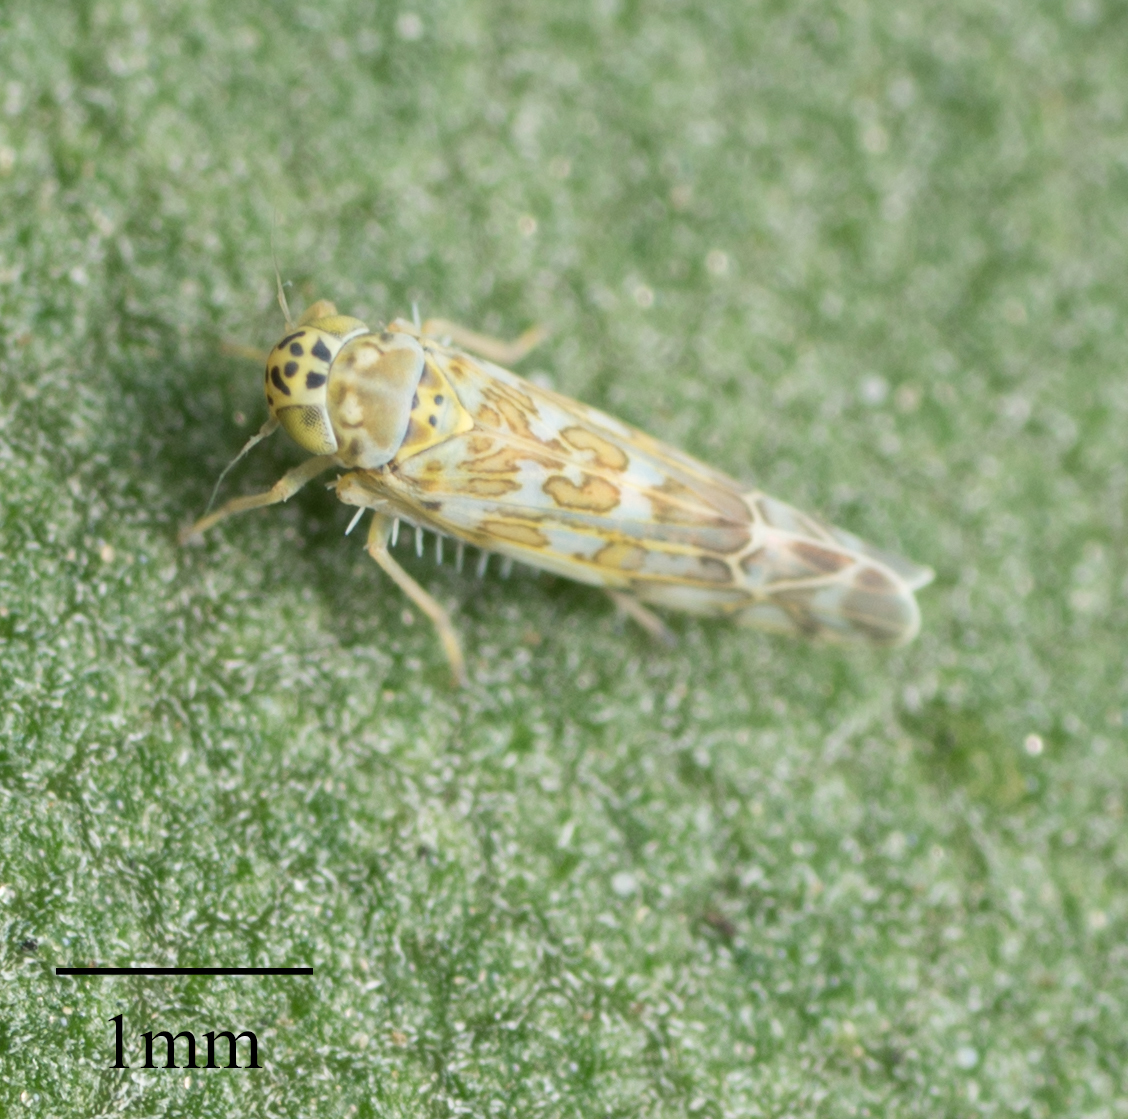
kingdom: Animalia
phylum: Arthropoda
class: Insecta
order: Hemiptera
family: Cicadellidae
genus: Eupteryx
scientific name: Eupteryx decemnotata
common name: Ligurian leafhopper
